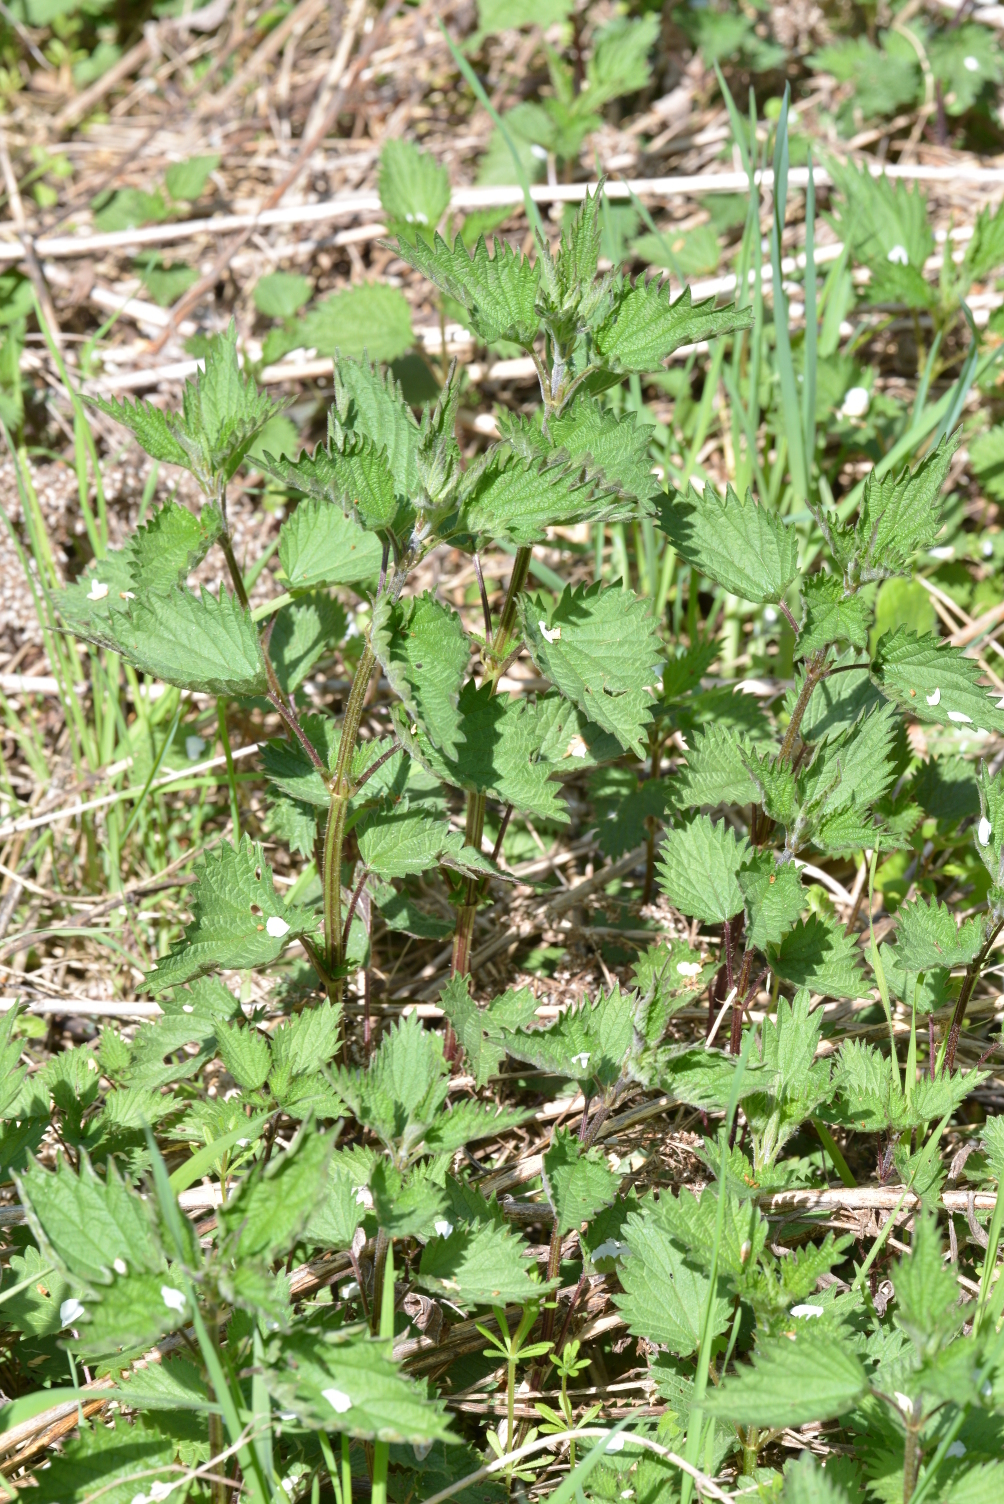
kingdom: Plantae
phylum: Tracheophyta
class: Magnoliopsida
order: Rosales
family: Urticaceae
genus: Urtica
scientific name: Urtica dioica
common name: Common nettle
